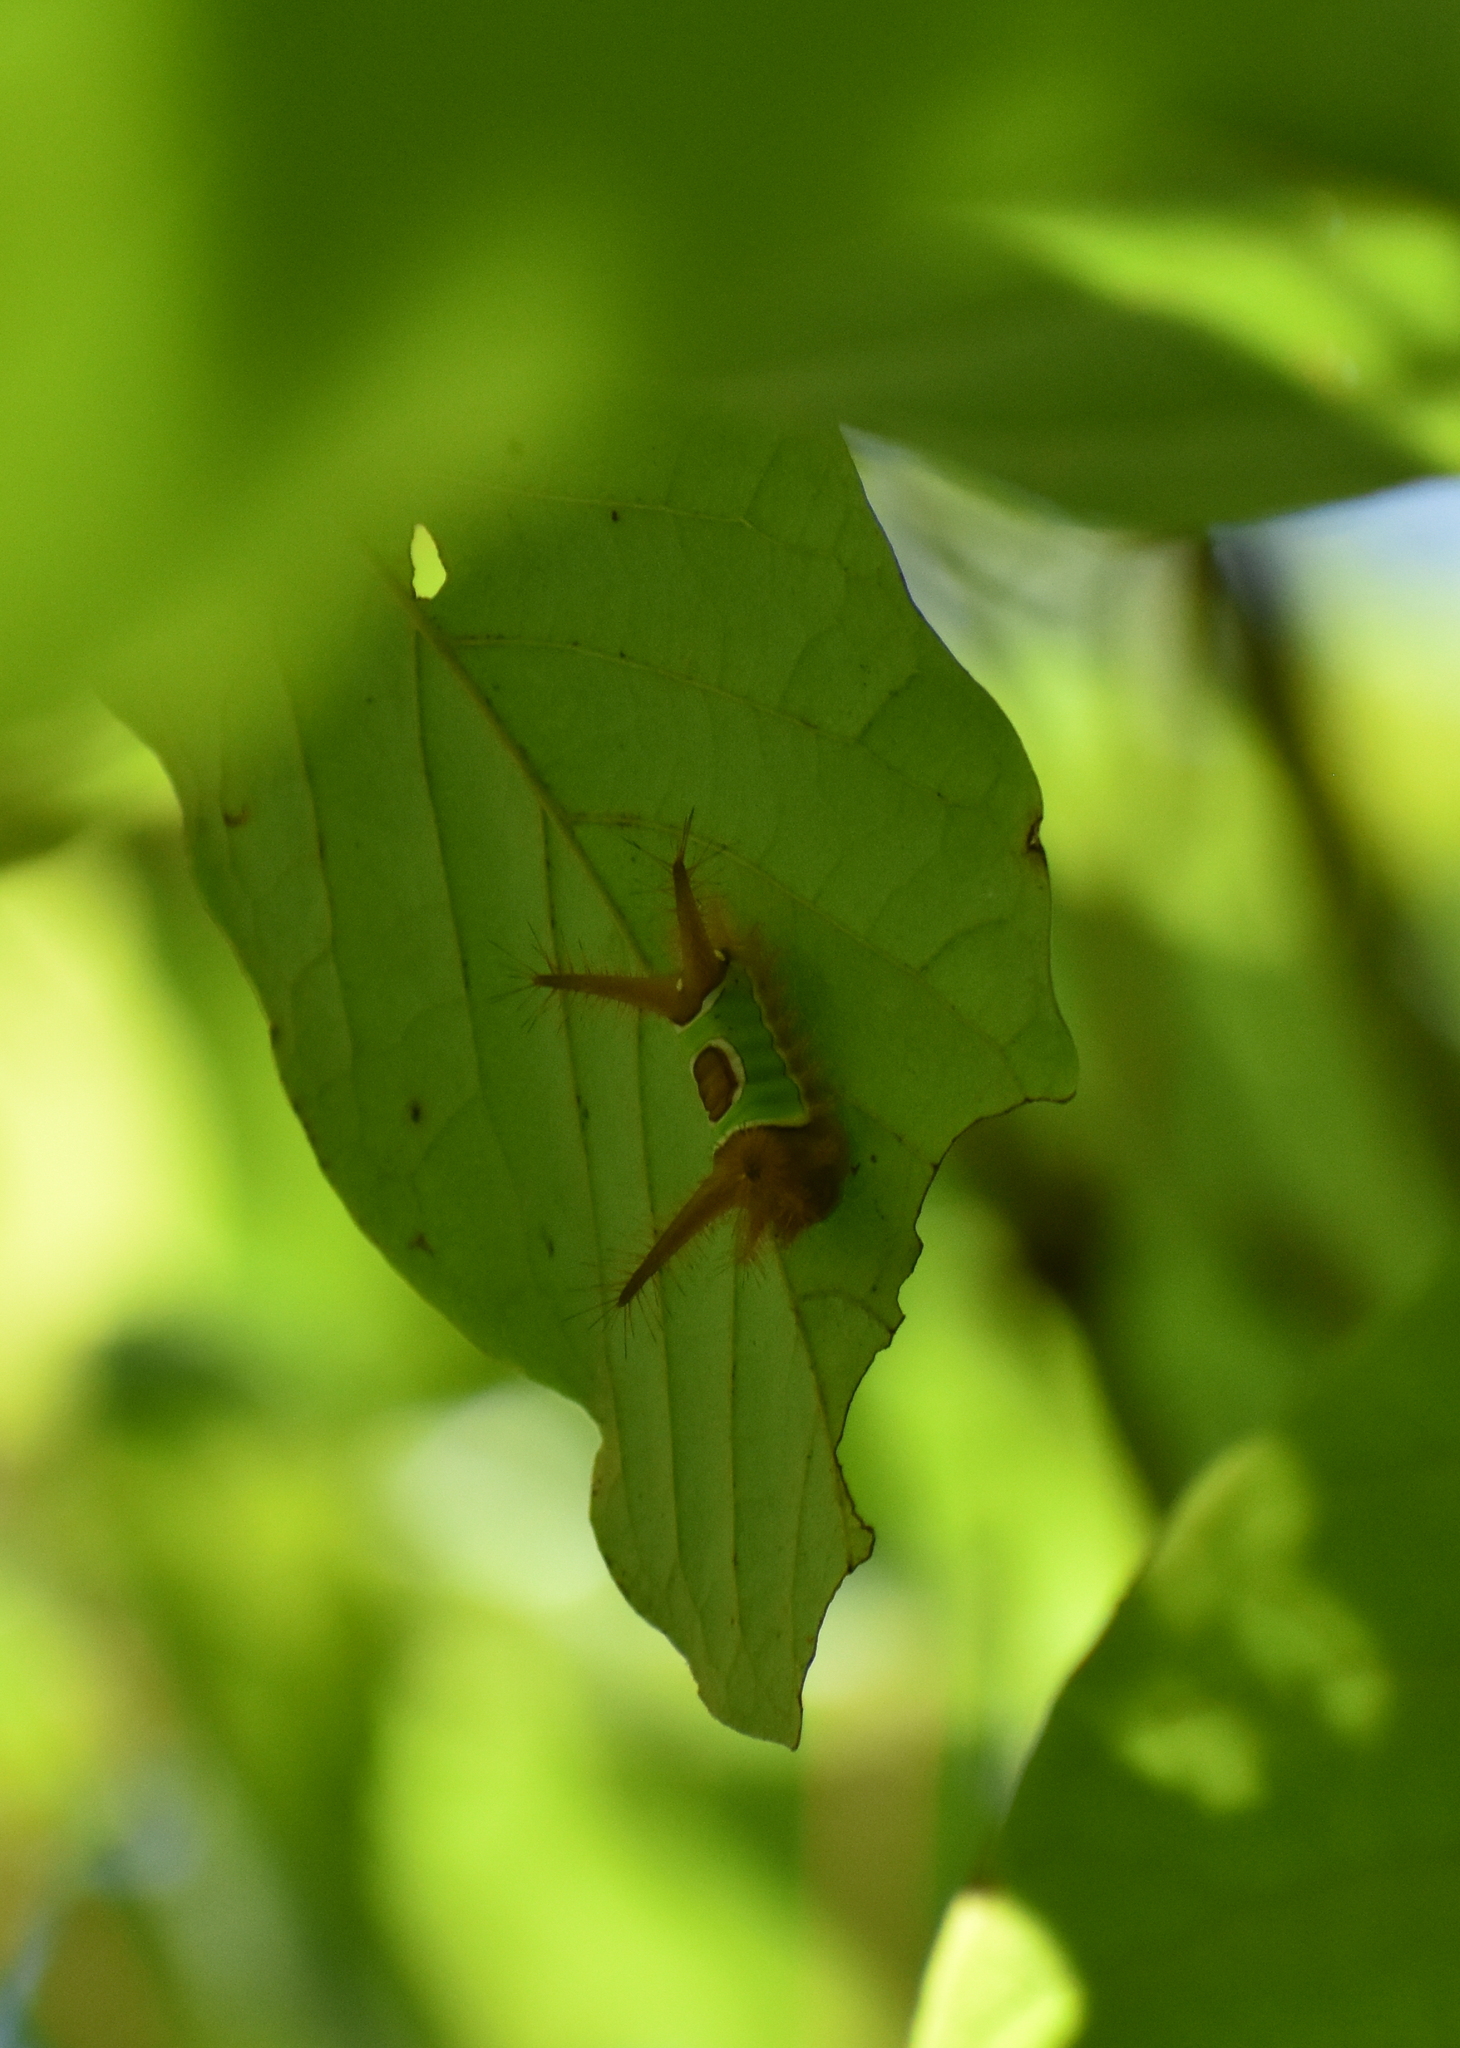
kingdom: Animalia
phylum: Arthropoda
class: Insecta
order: Lepidoptera
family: Limacodidae
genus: Acharia
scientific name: Acharia stimulea
